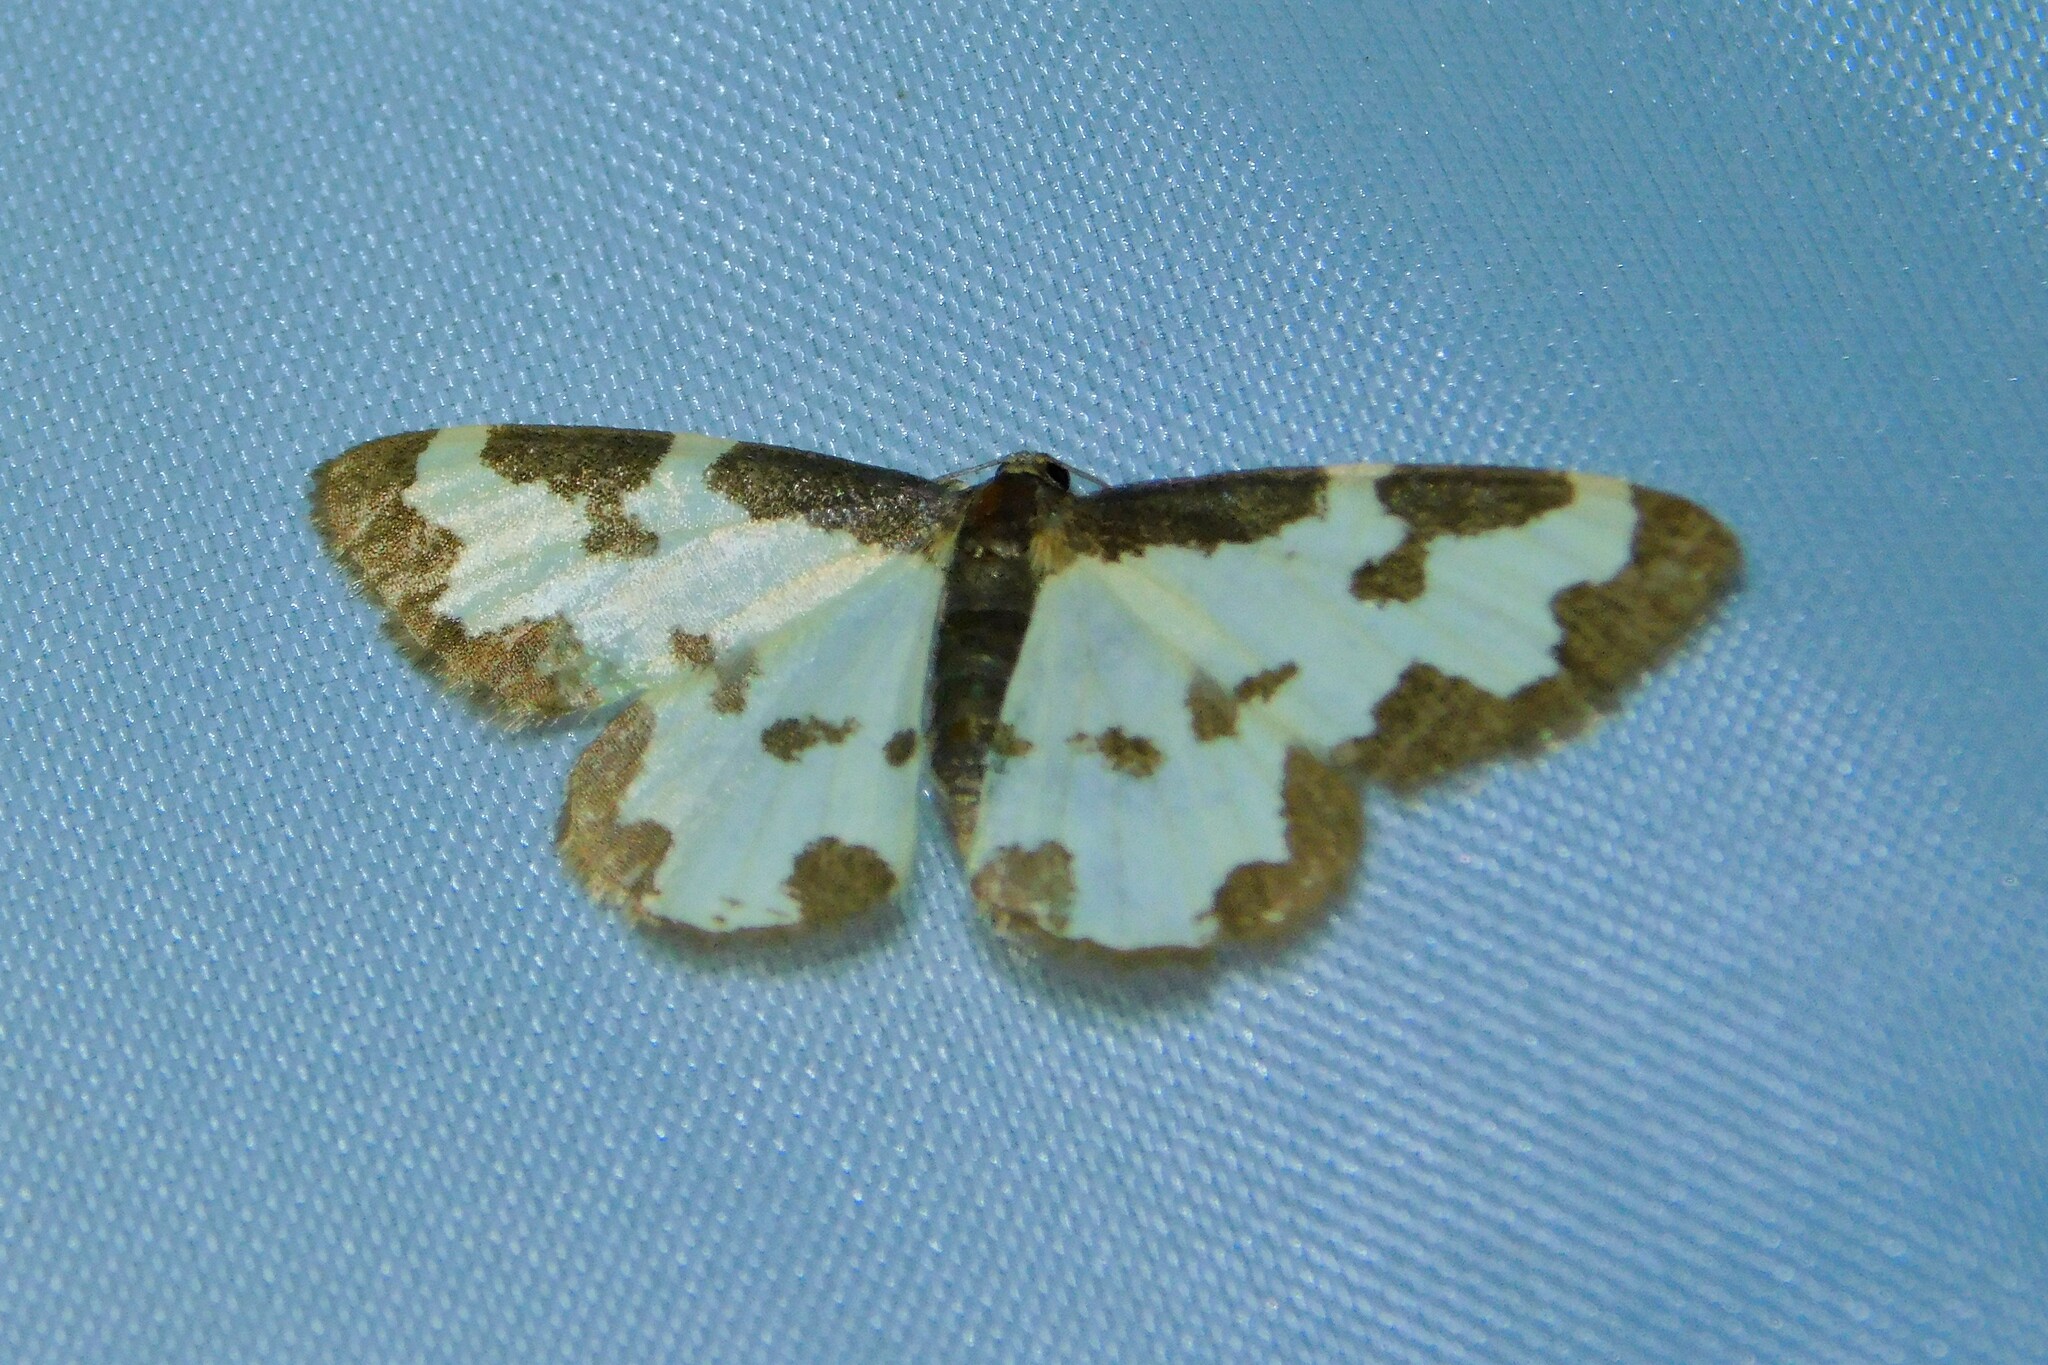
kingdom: Animalia
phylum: Arthropoda
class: Insecta
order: Lepidoptera
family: Geometridae
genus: Lomaspilis
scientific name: Lomaspilis marginata
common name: Clouded border
